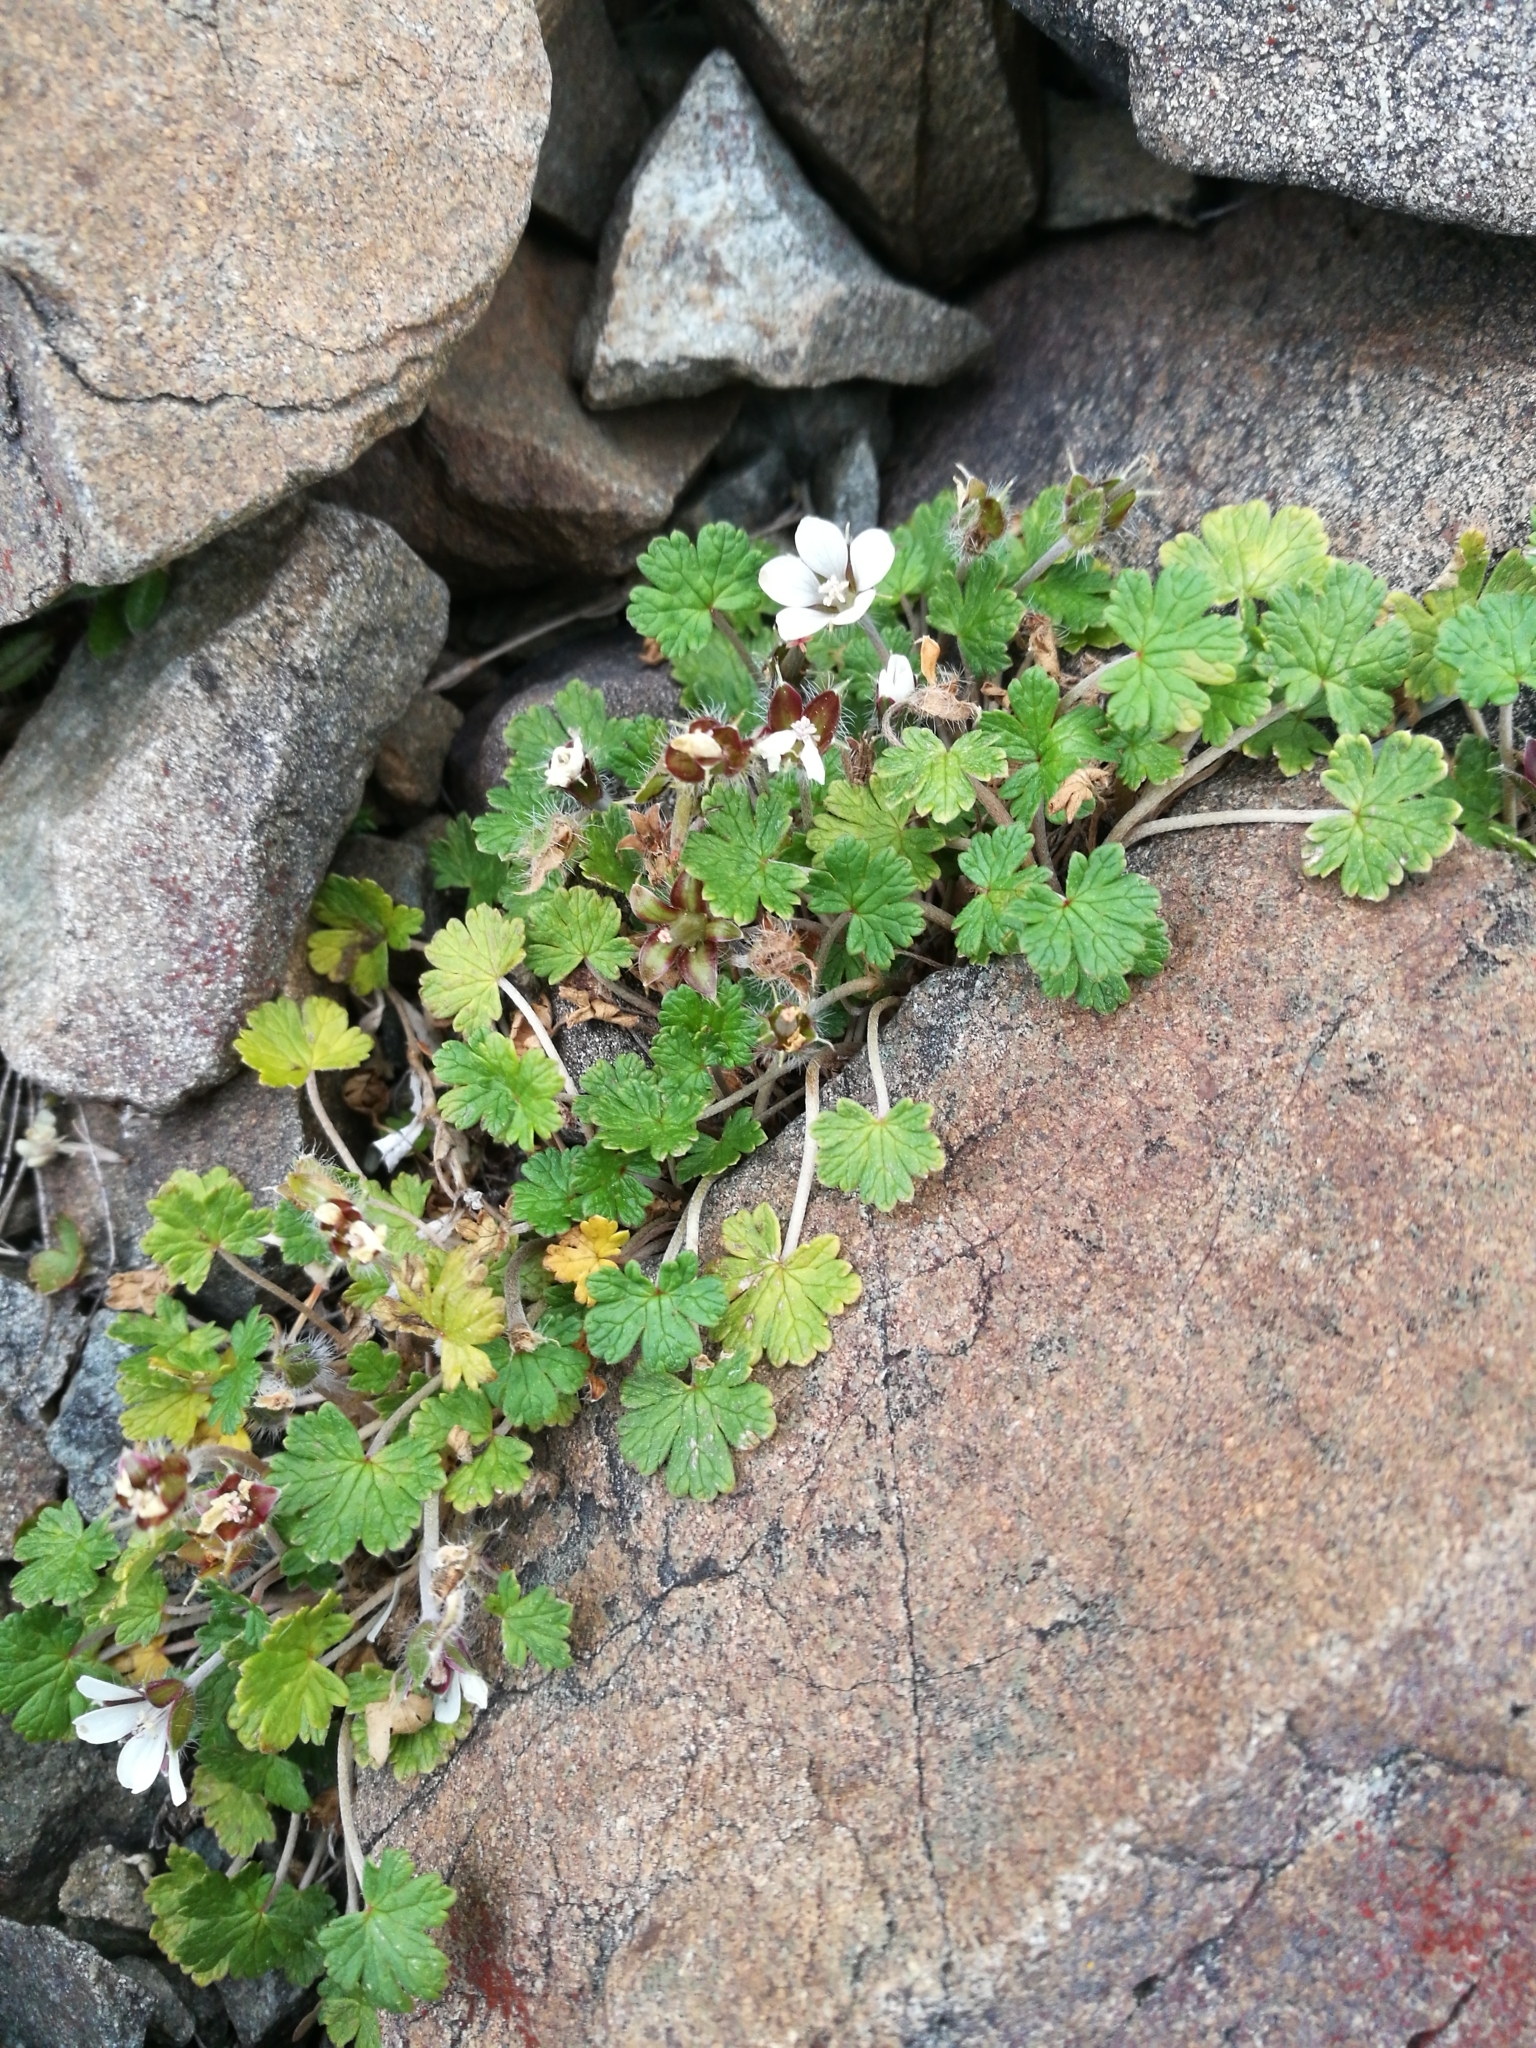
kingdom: Plantae
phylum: Tracheophyta
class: Magnoliopsida
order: Geraniales
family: Geraniaceae
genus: Geranium
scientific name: Geranium brevicaule
